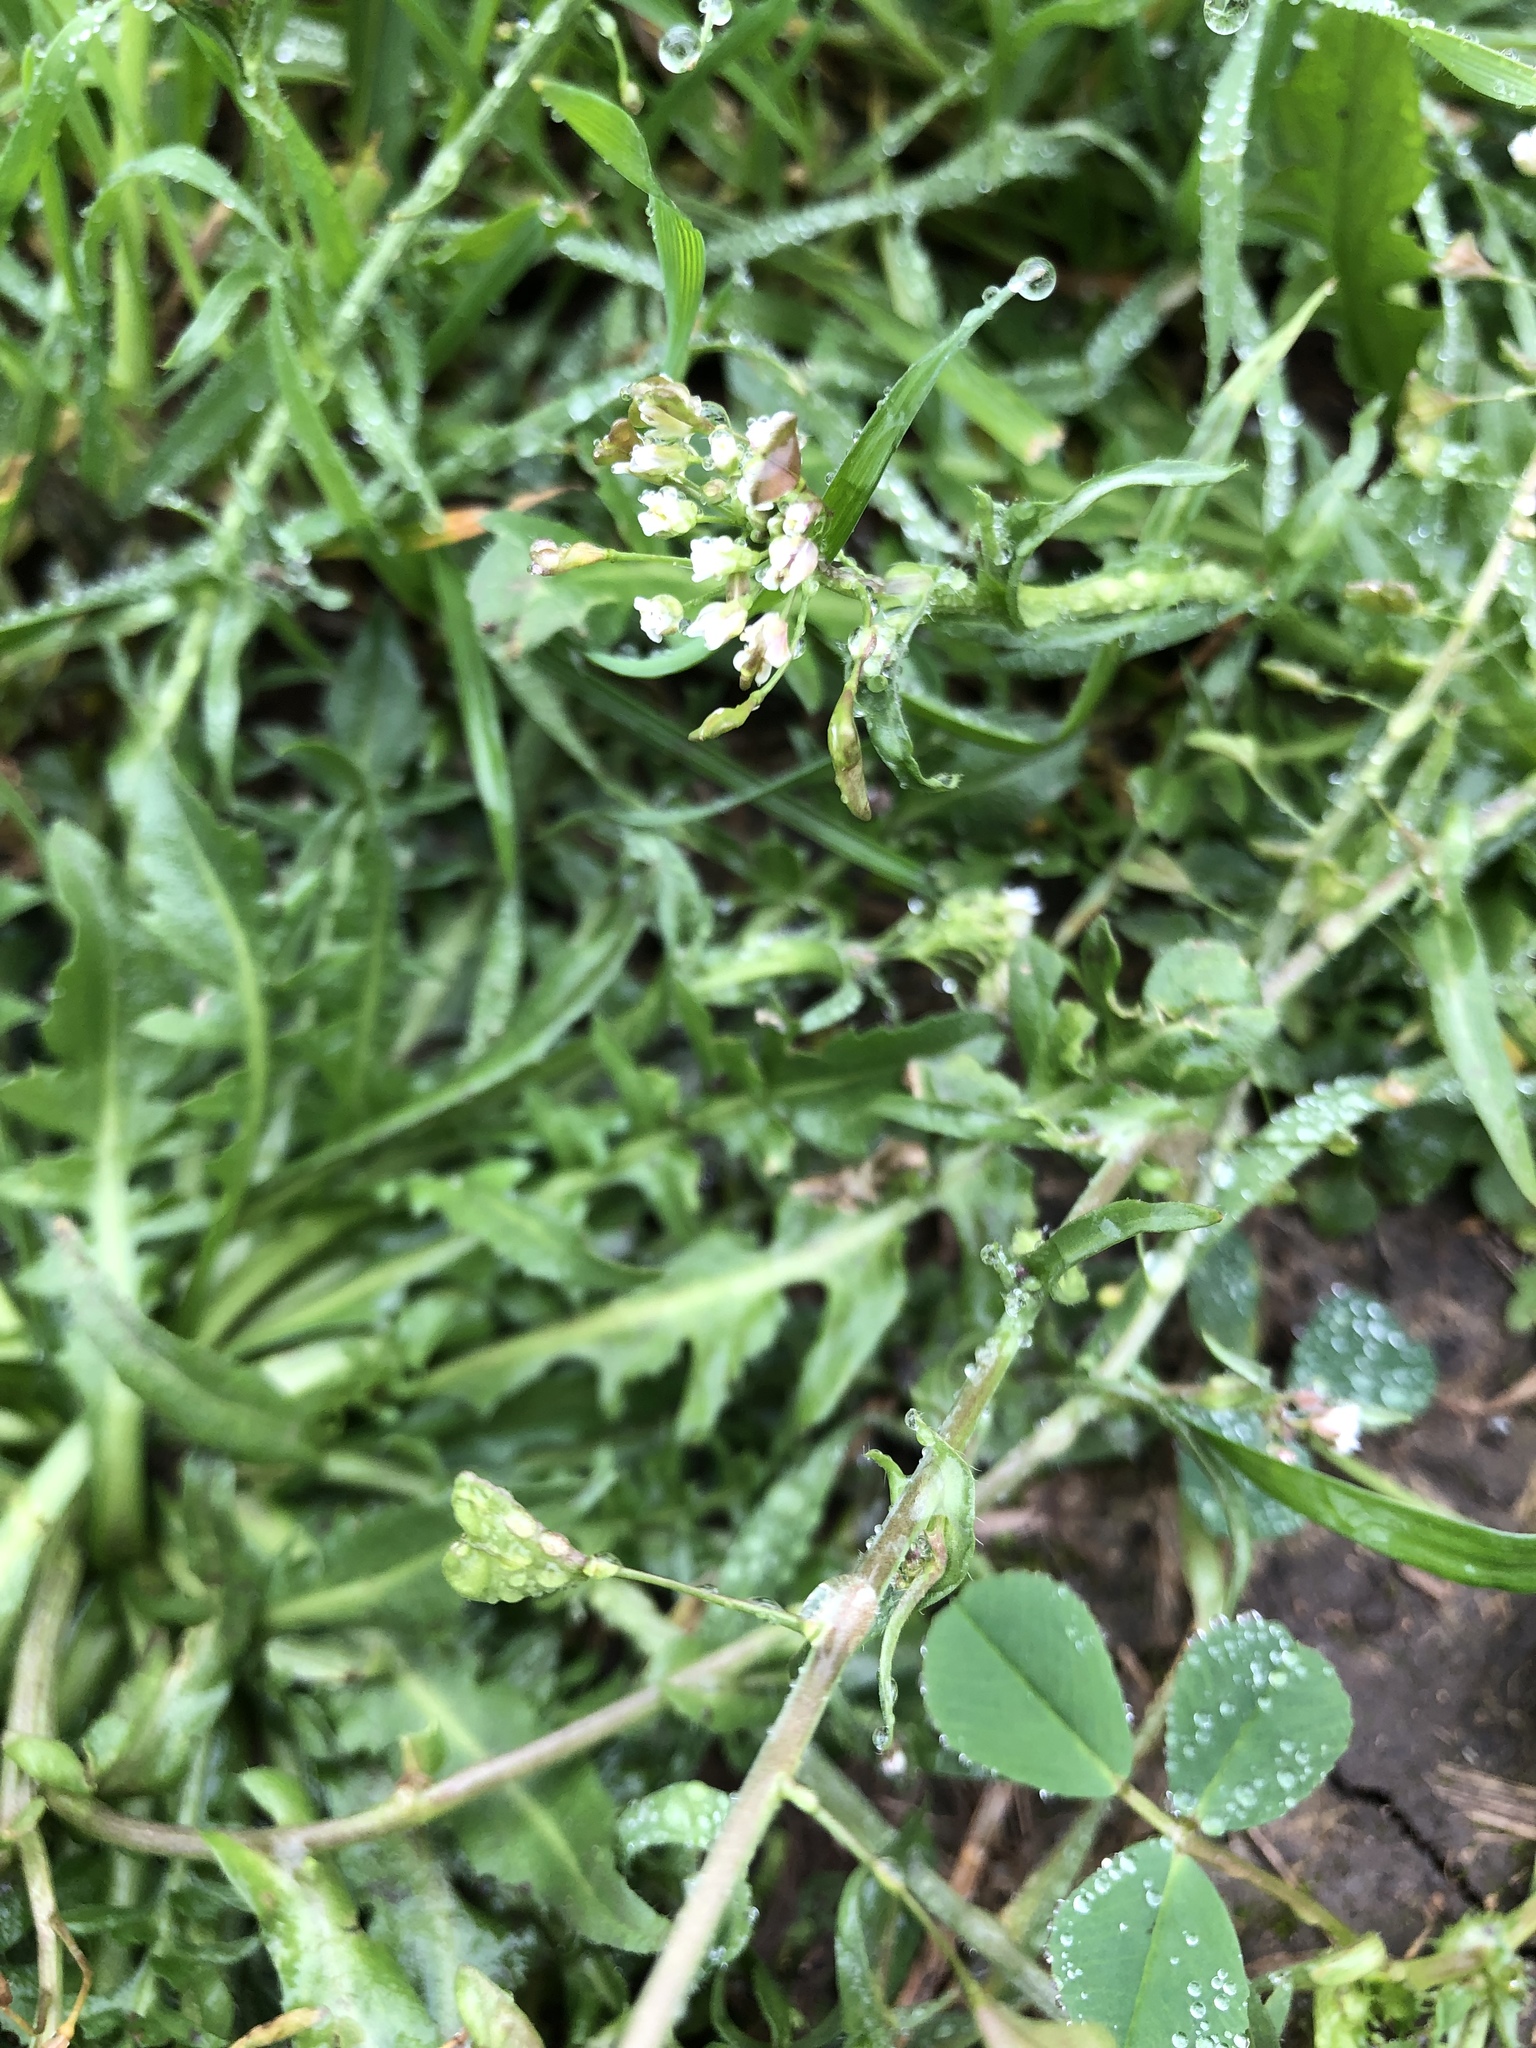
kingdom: Plantae
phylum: Tracheophyta
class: Magnoliopsida
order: Brassicales
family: Brassicaceae
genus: Capsella
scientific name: Capsella bursa-pastoris
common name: Shepherd's purse
